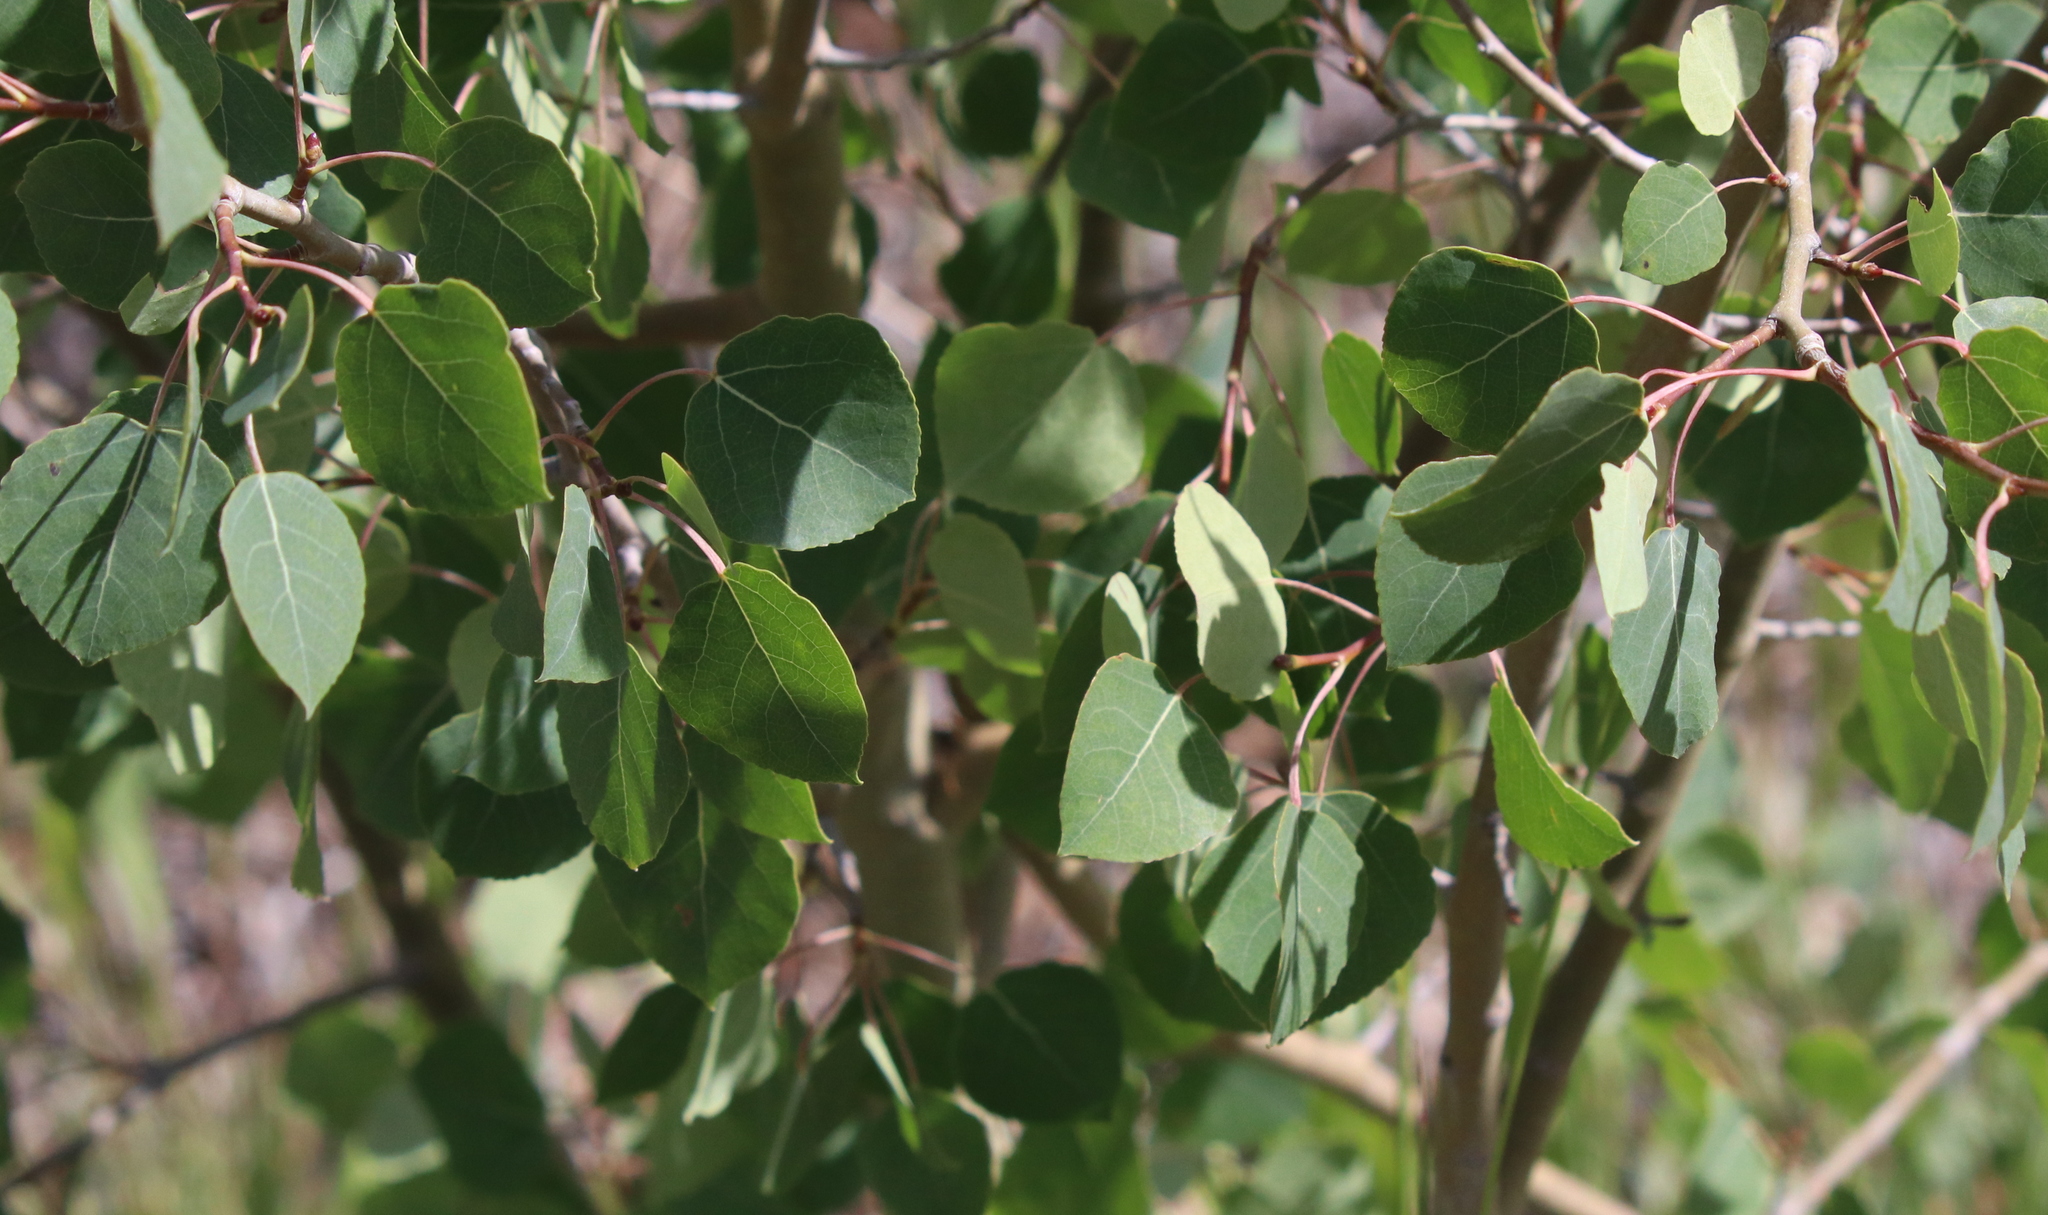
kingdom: Plantae
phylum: Tracheophyta
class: Magnoliopsida
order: Malpighiales
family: Salicaceae
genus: Populus
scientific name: Populus tremuloides
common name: Quaking aspen
